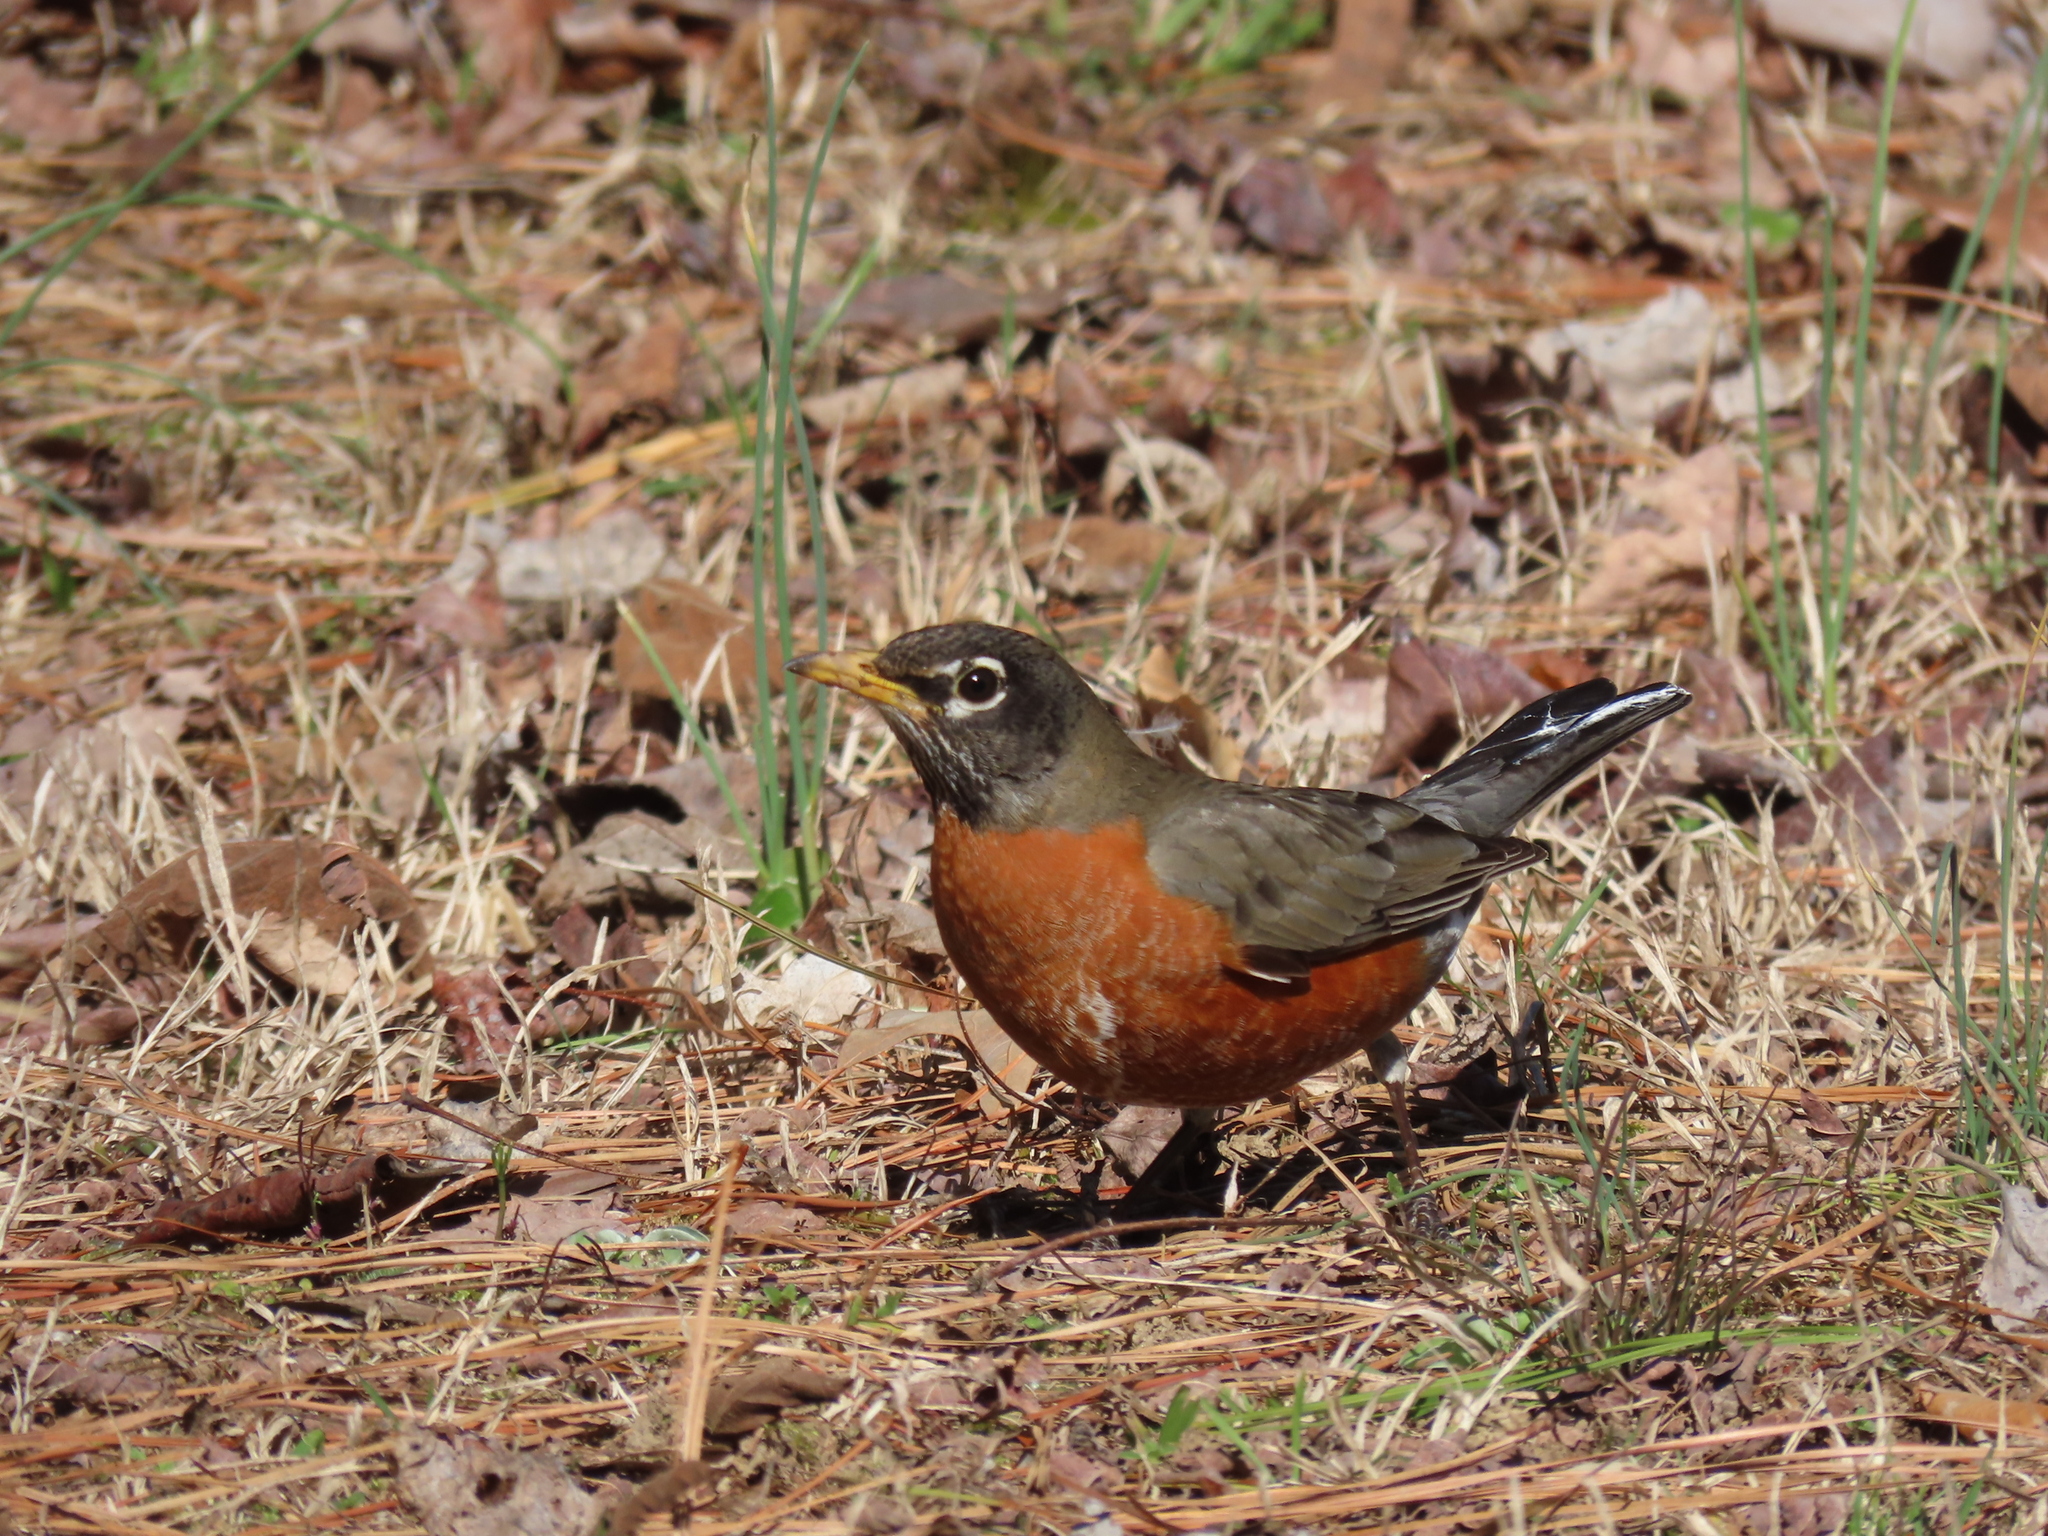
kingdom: Animalia
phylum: Chordata
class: Aves
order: Passeriformes
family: Turdidae
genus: Turdus
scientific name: Turdus migratorius
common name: American robin
